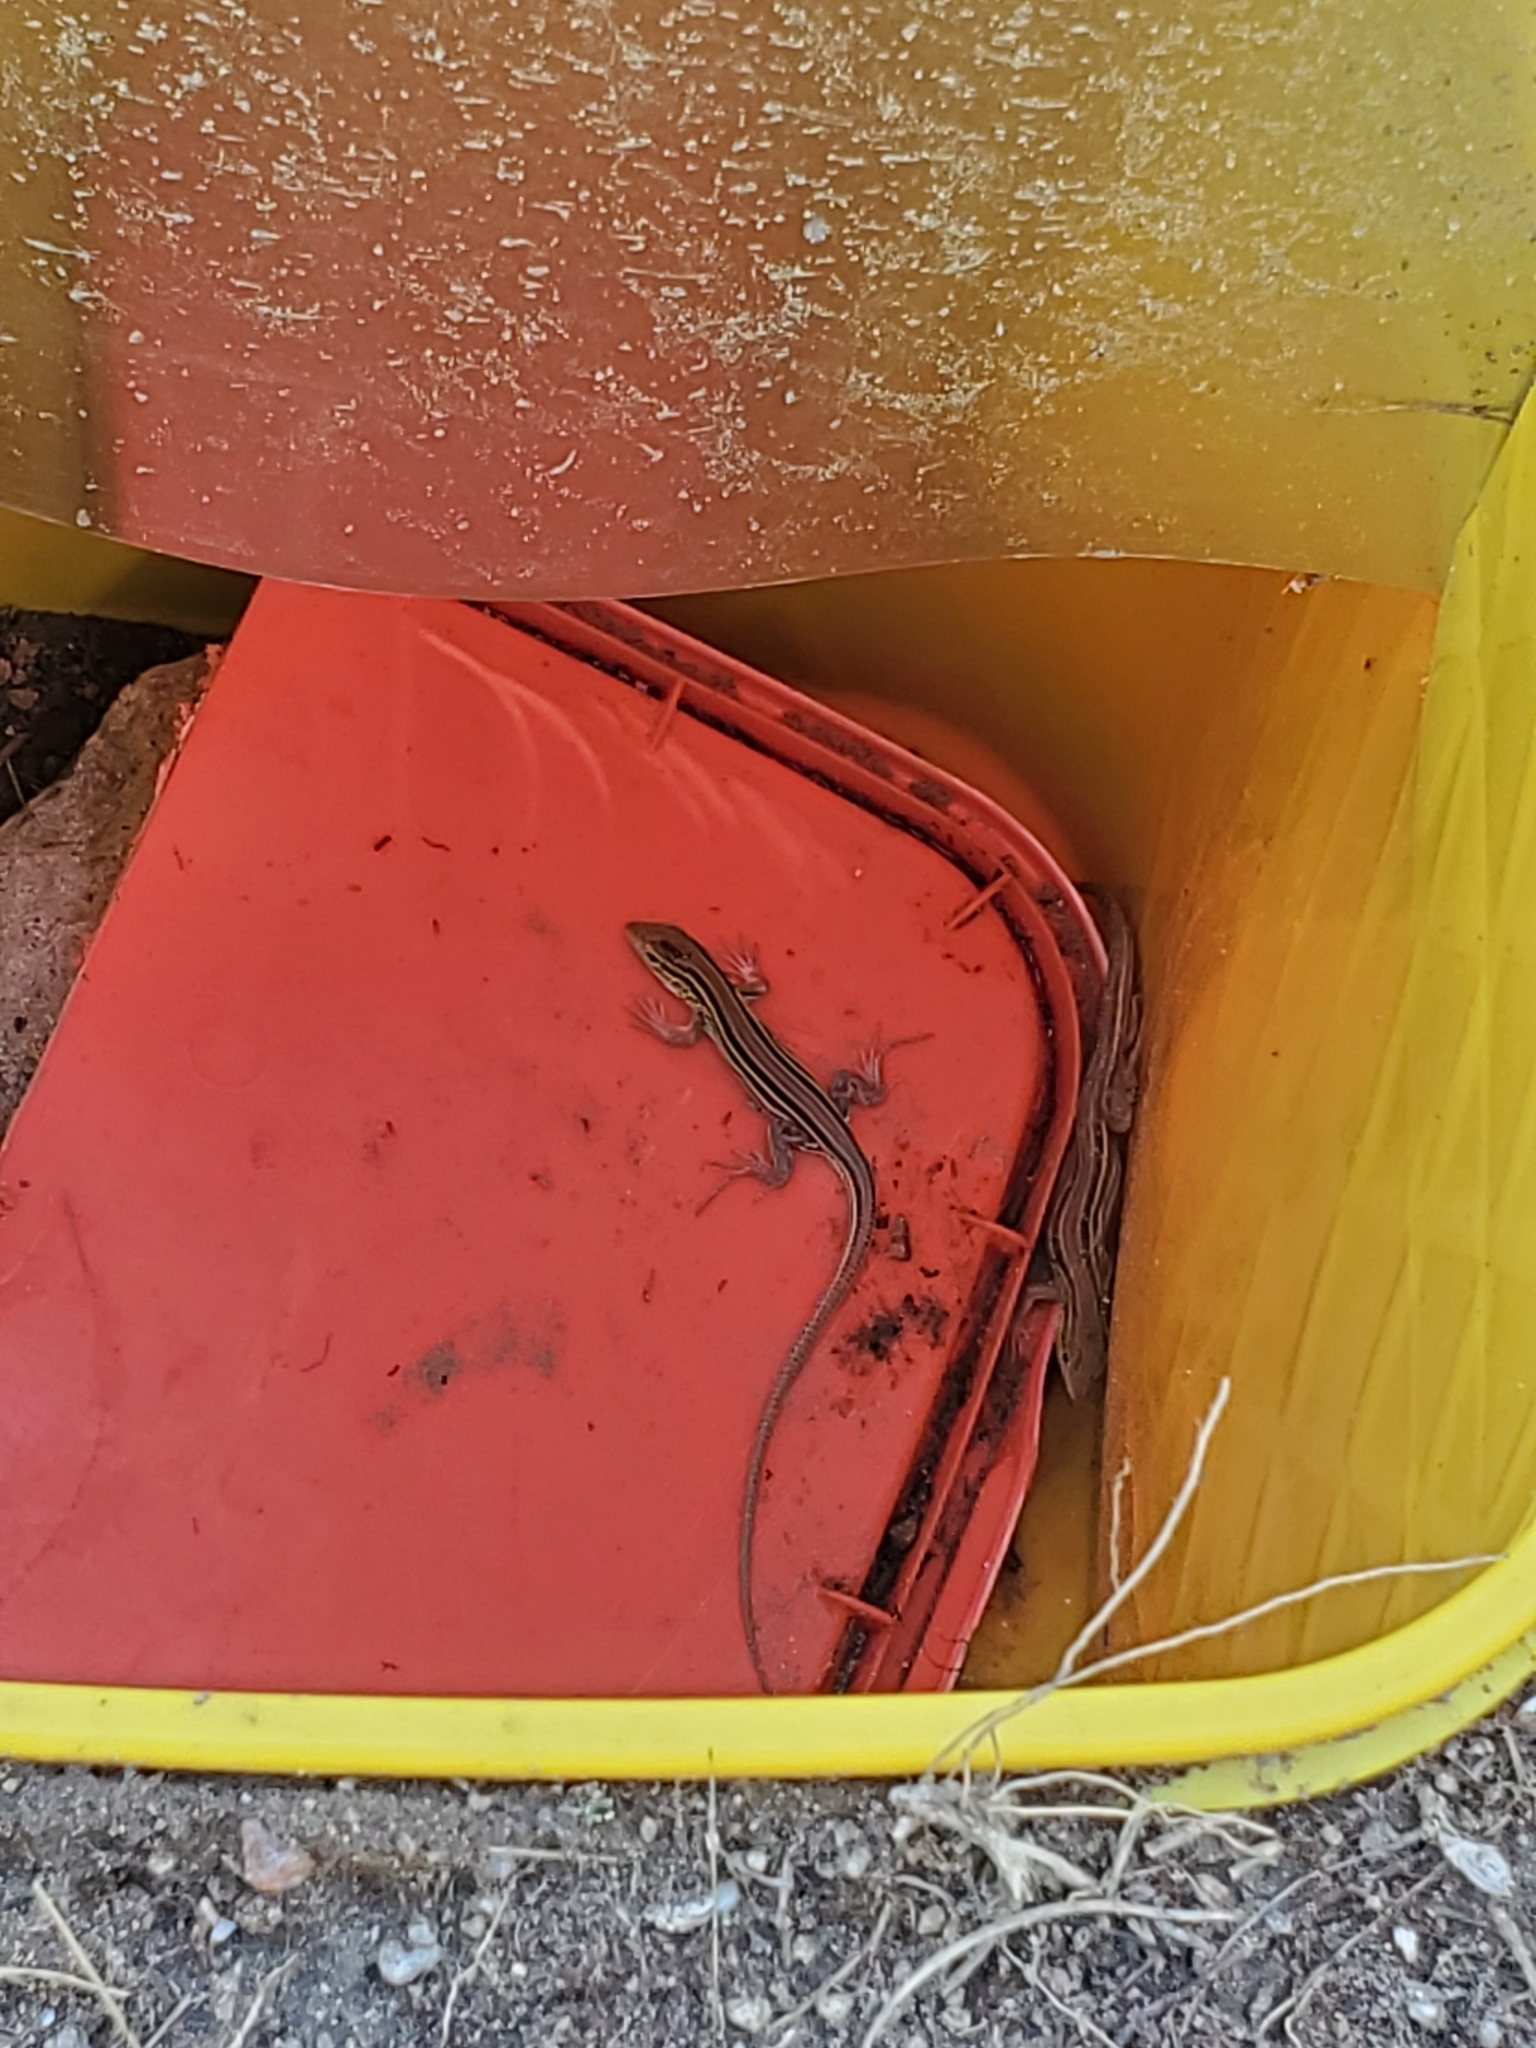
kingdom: Animalia
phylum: Chordata
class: Squamata
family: Teiidae
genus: Aspidoscelis
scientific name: Aspidoscelis sexlineatus
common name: Six-lined racerunner
